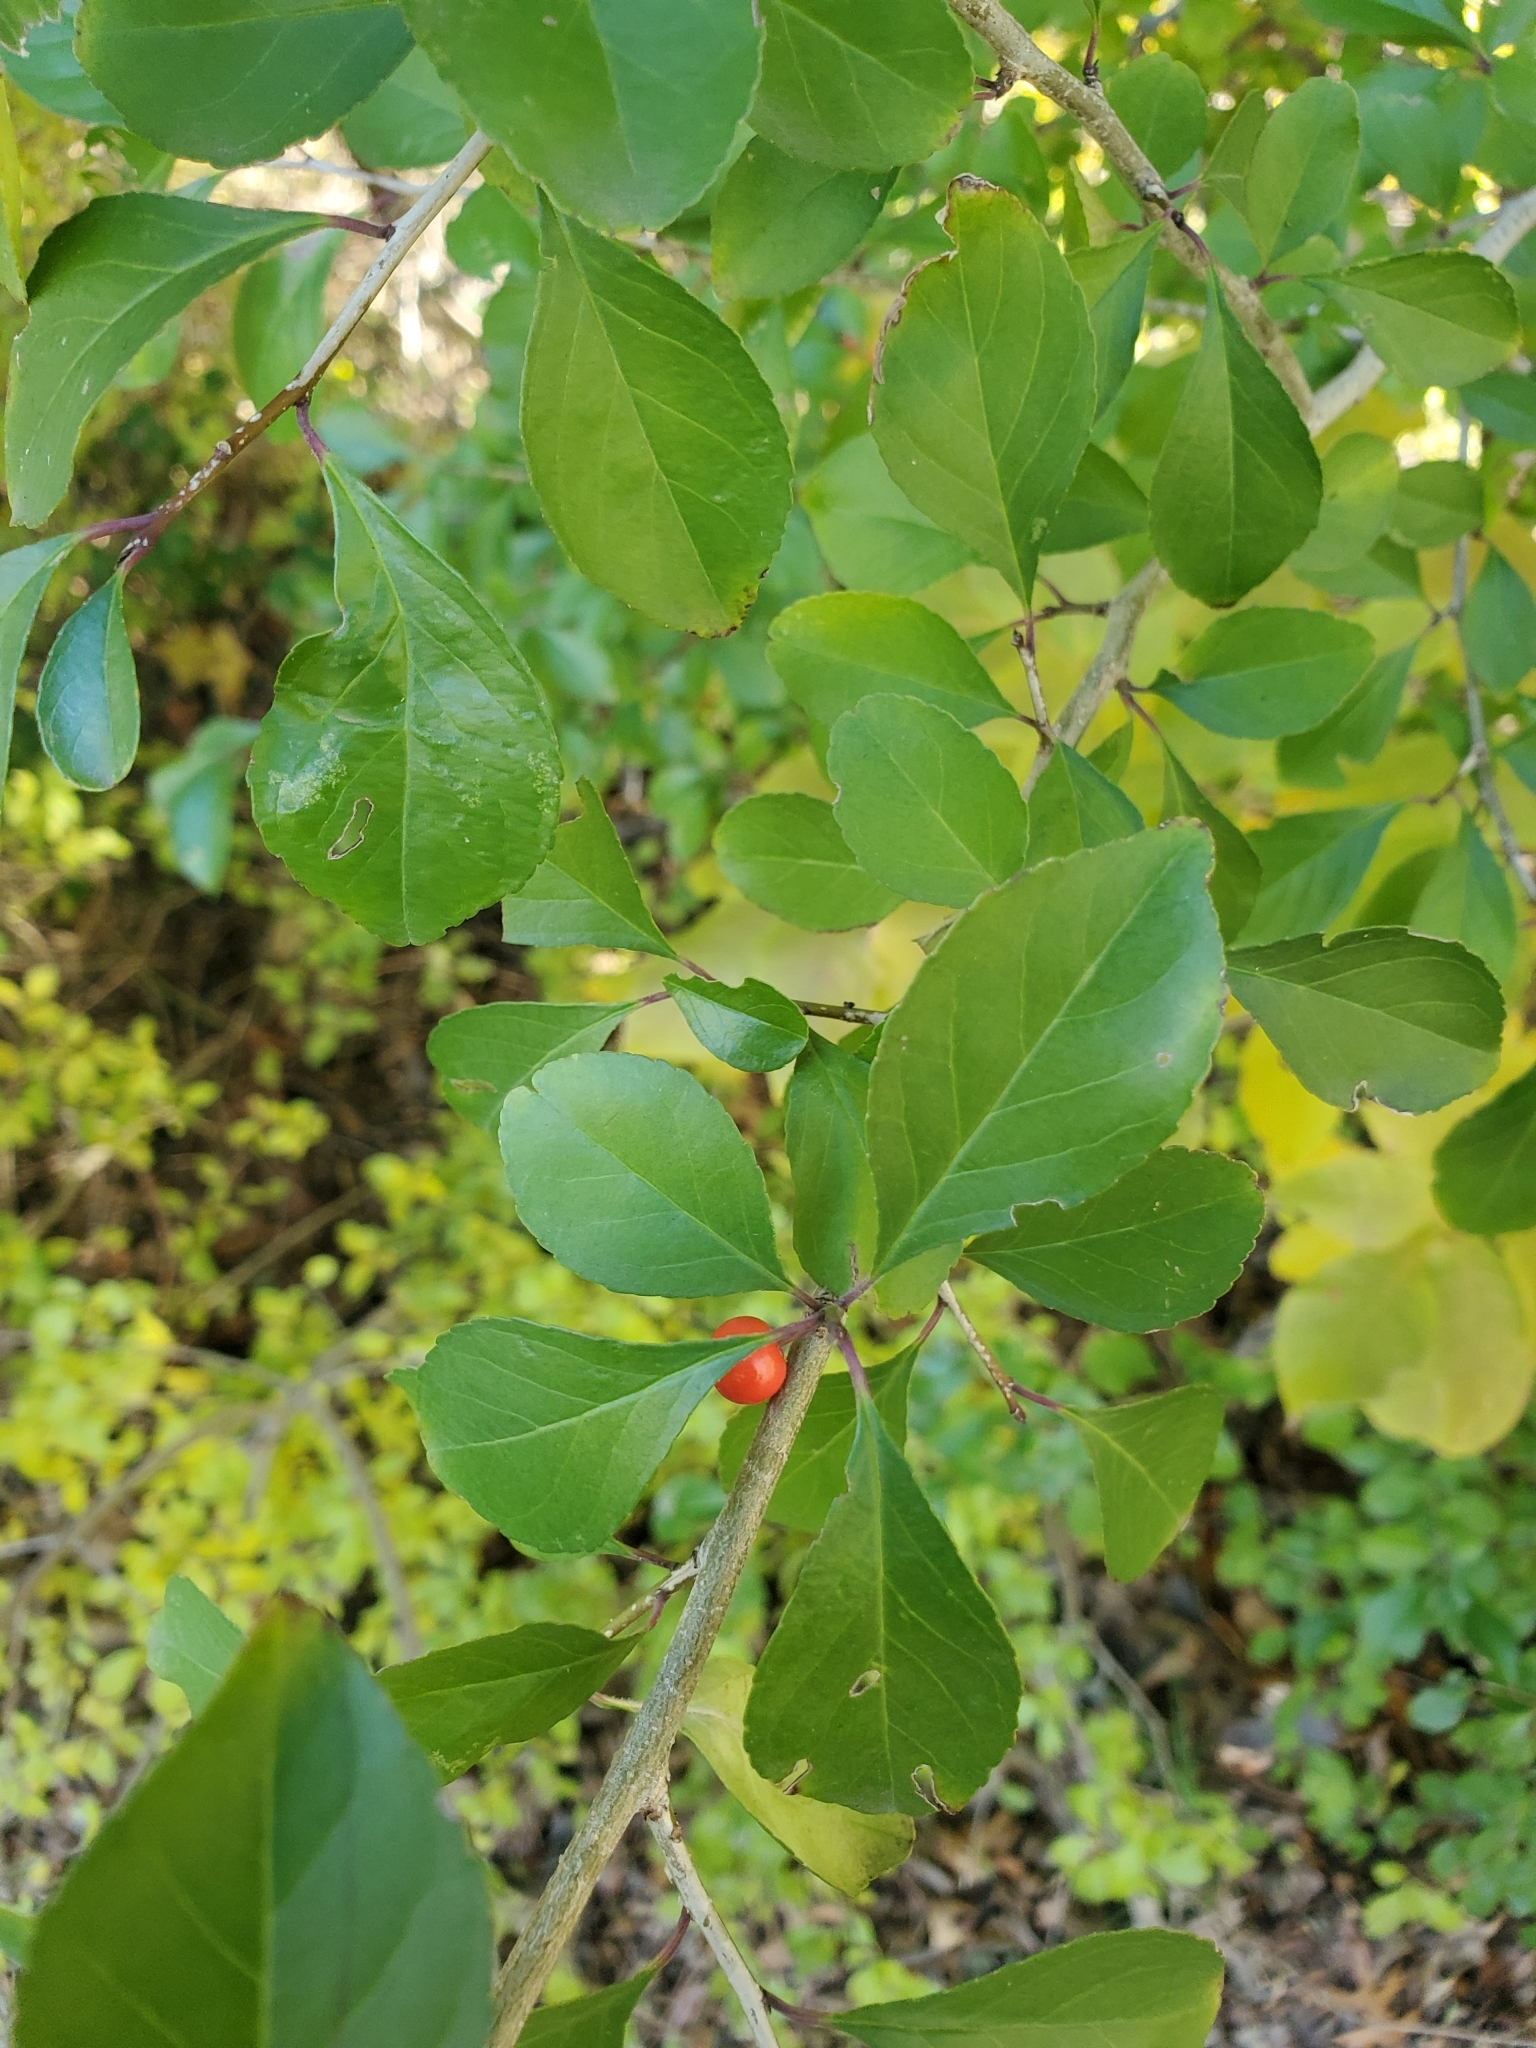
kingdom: Plantae
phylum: Tracheophyta
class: Magnoliopsida
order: Aquifoliales
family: Aquifoliaceae
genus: Ilex
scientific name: Ilex decidua
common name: Possum-haw
